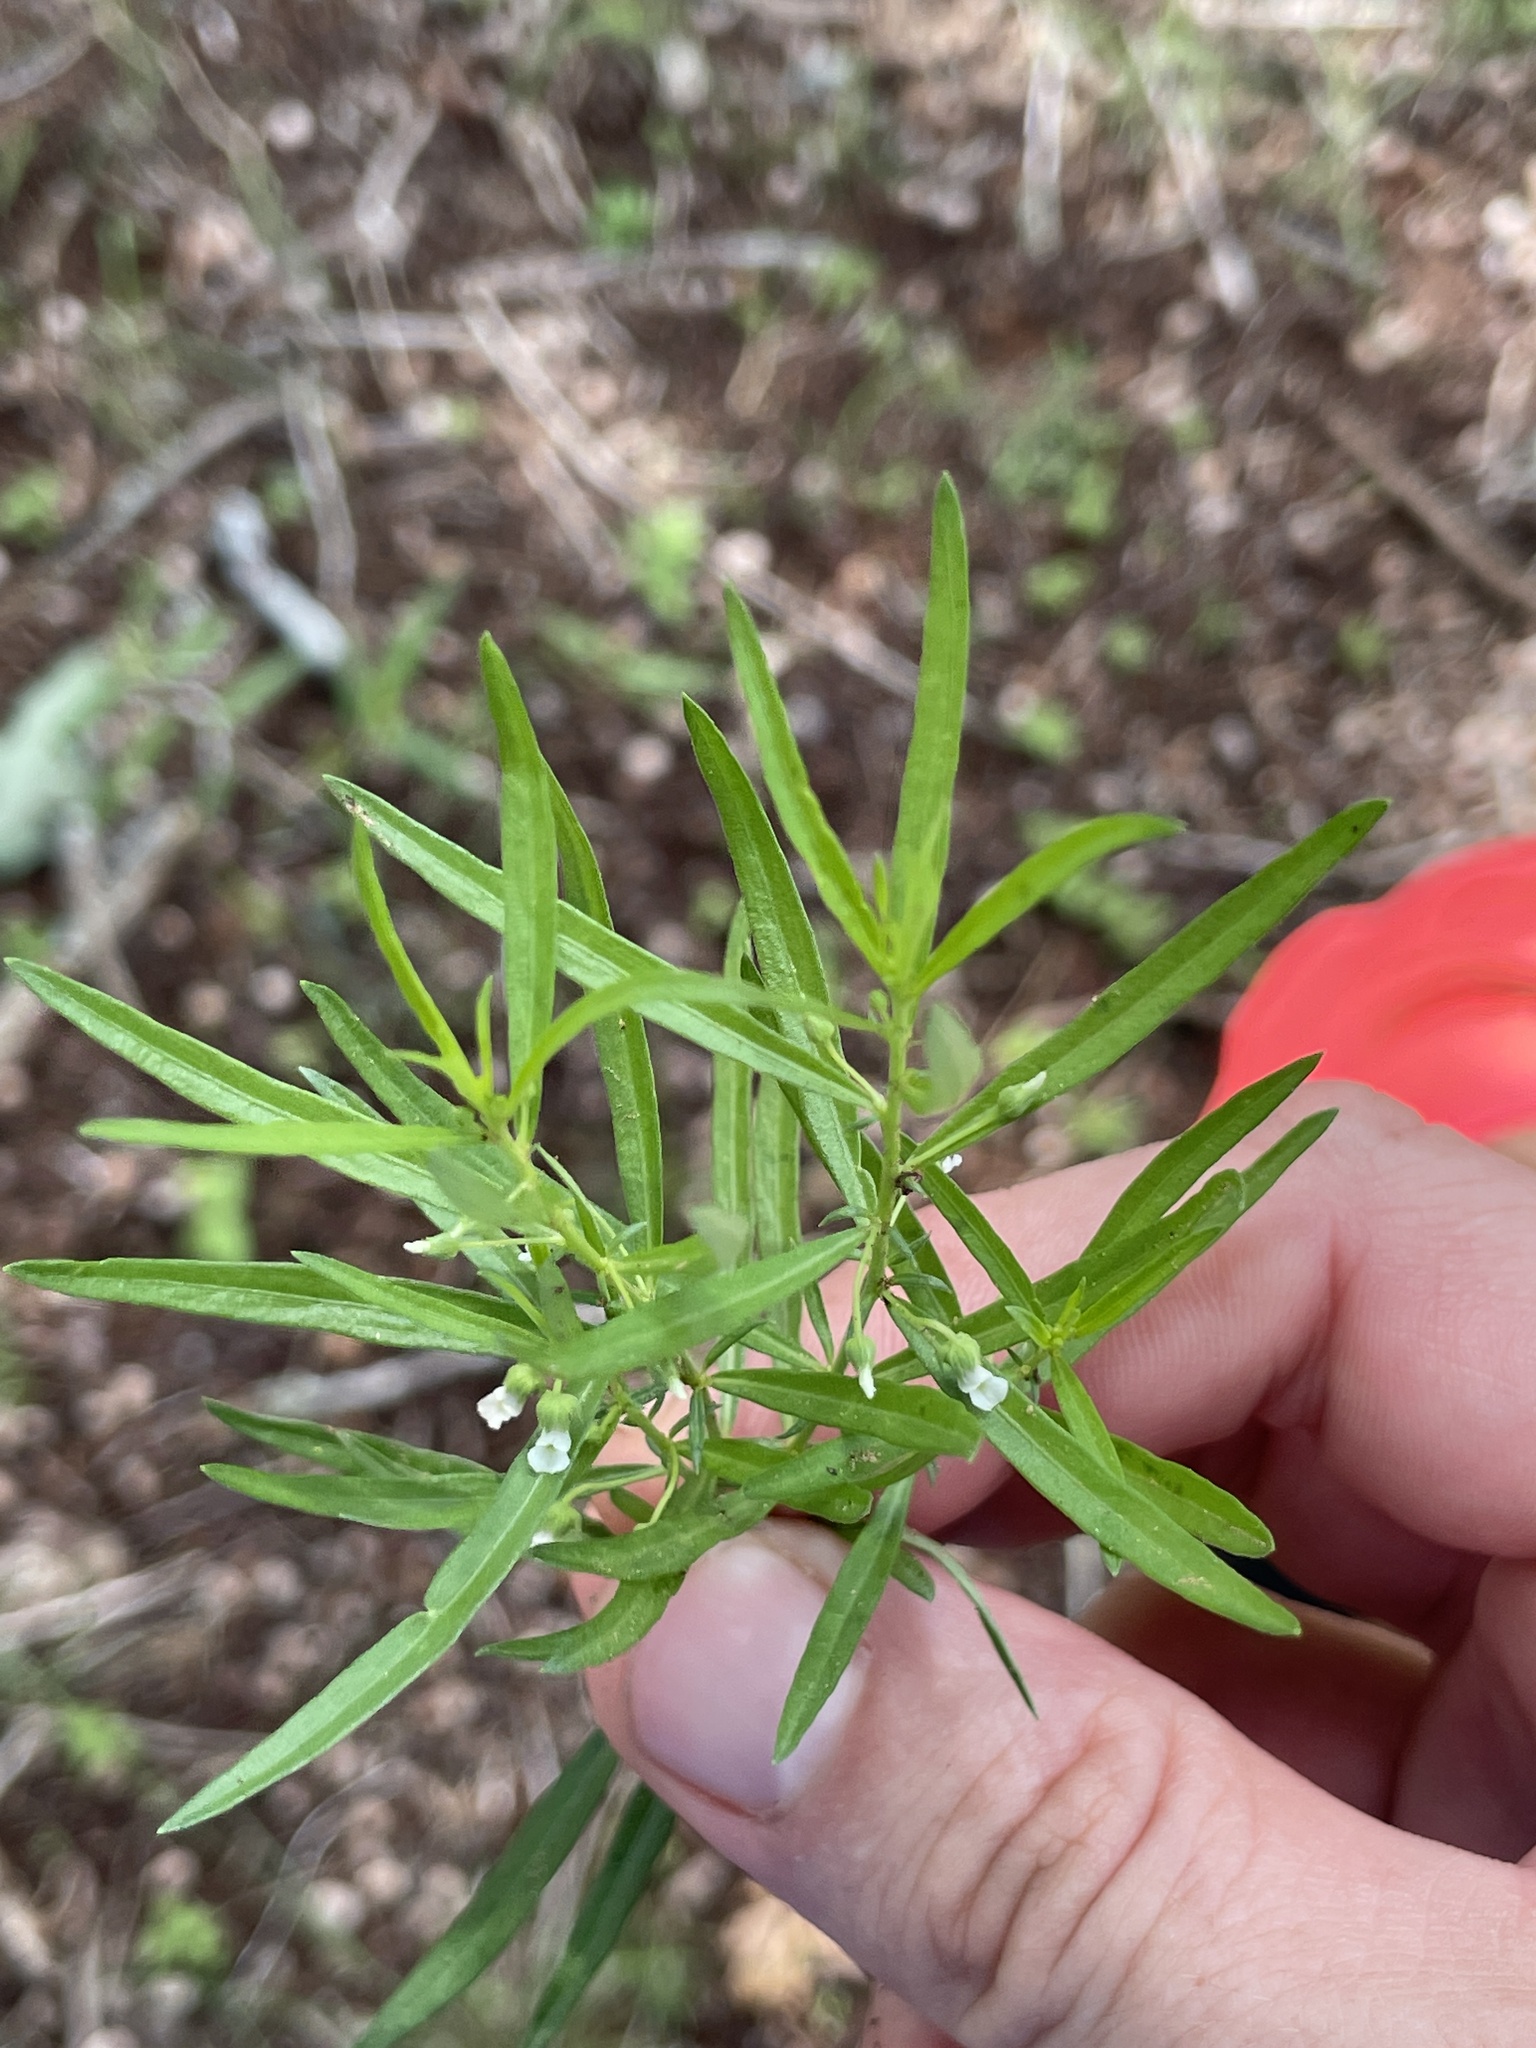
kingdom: Plantae
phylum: Tracheophyta
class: Magnoliopsida
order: Malpighiales
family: Violaceae
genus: Pombalia
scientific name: Pombalia verticillata
